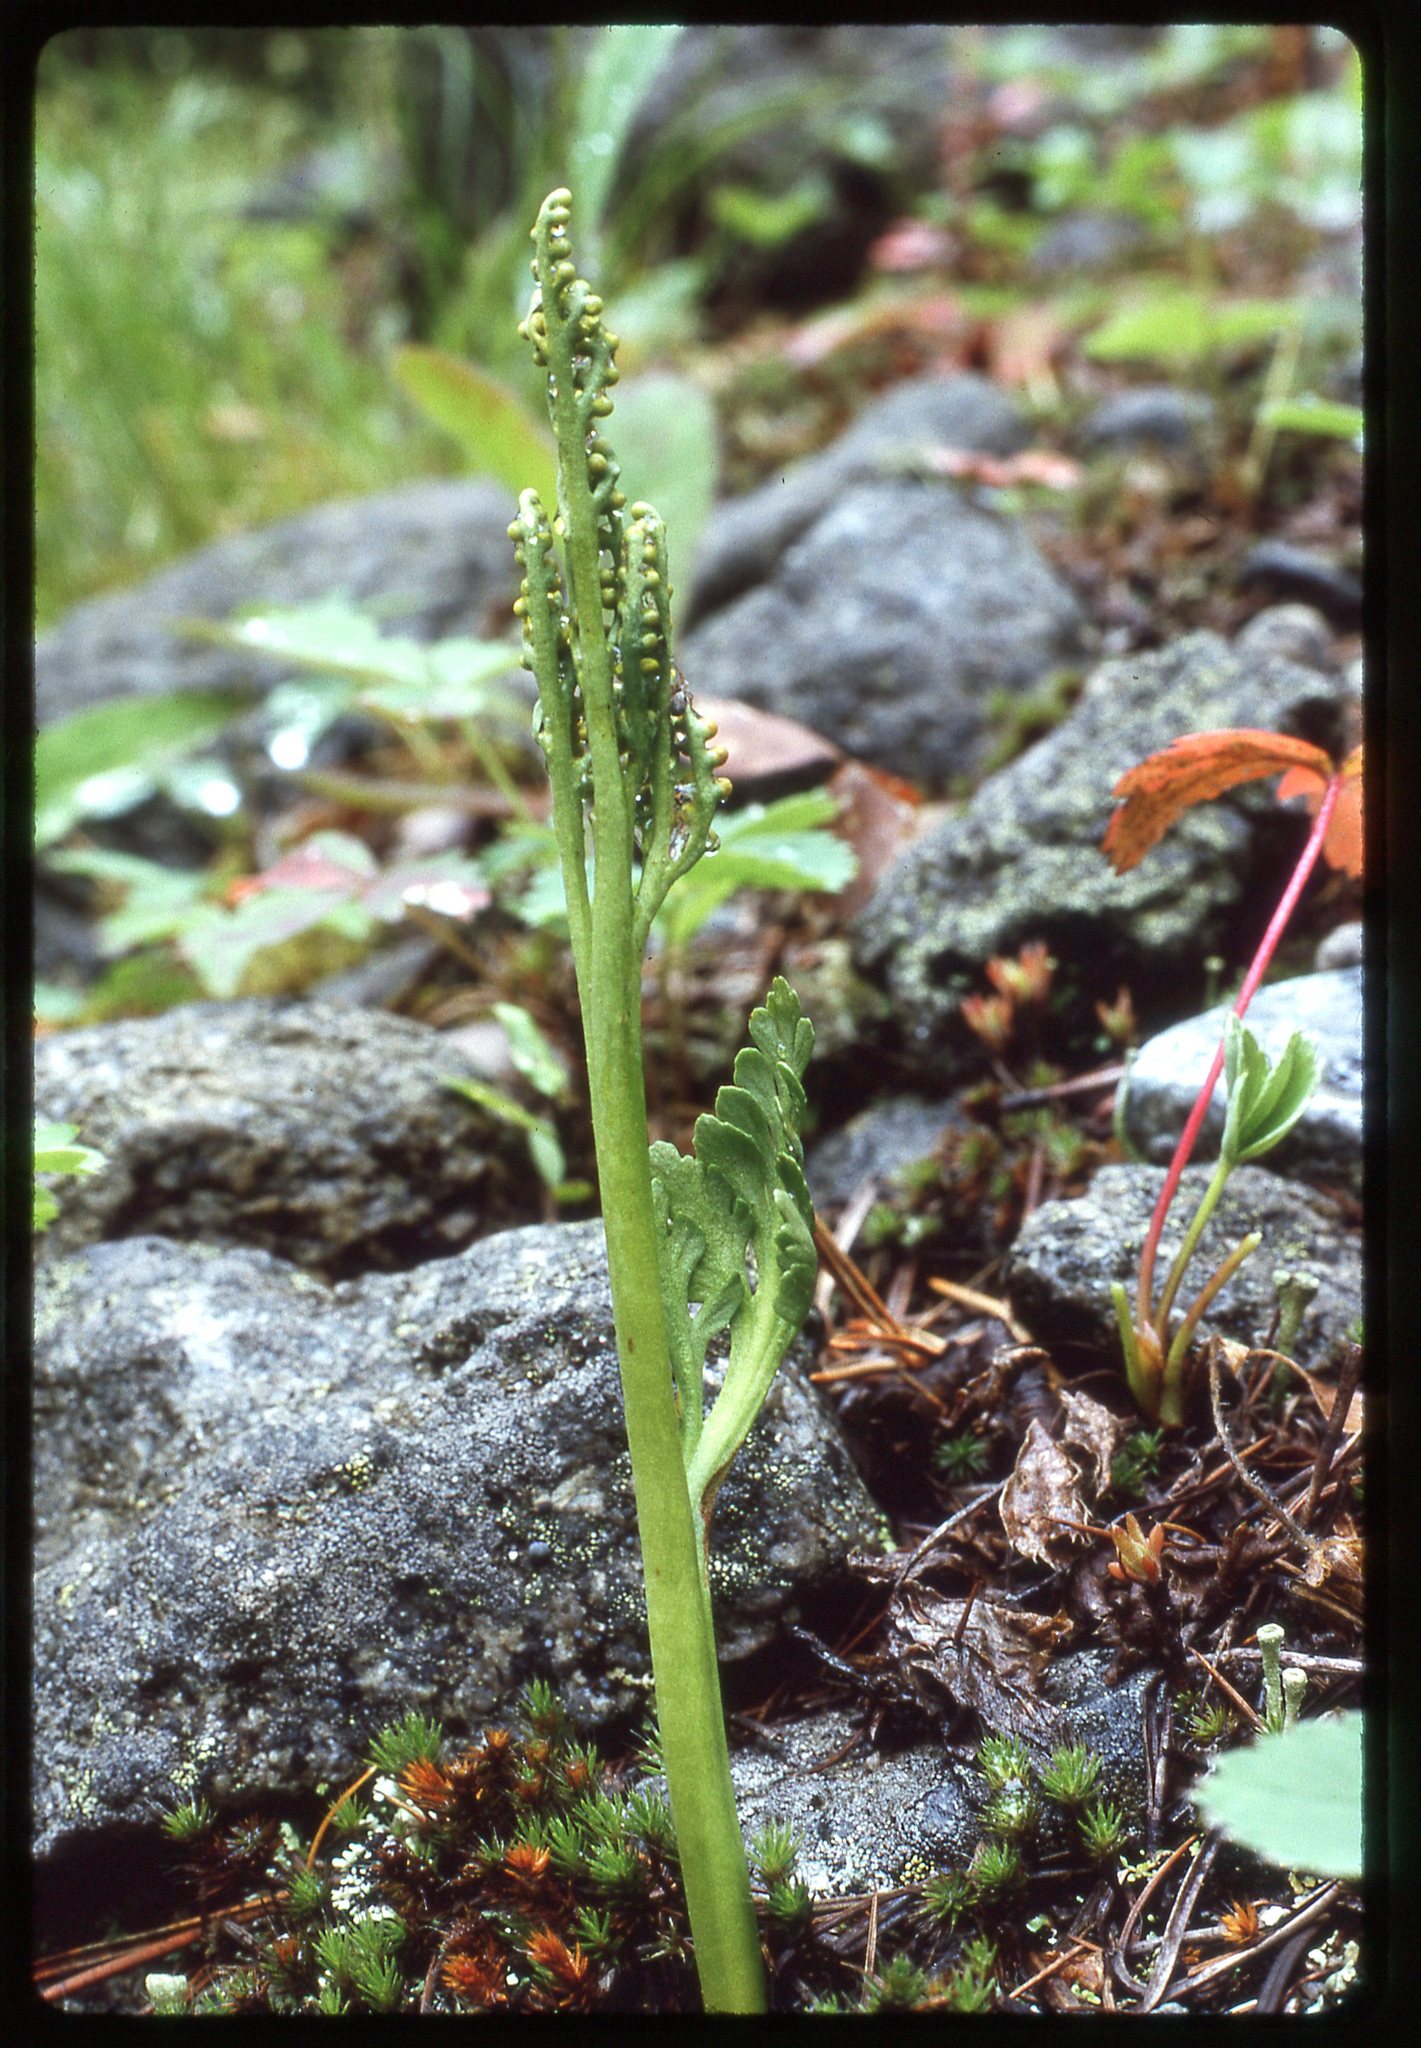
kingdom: Plantae
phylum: Tracheophyta
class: Polypodiopsida
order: Ophioglossales
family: Ophioglossaceae
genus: Botrychium
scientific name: Botrychium hesperium
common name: Western moonwort
